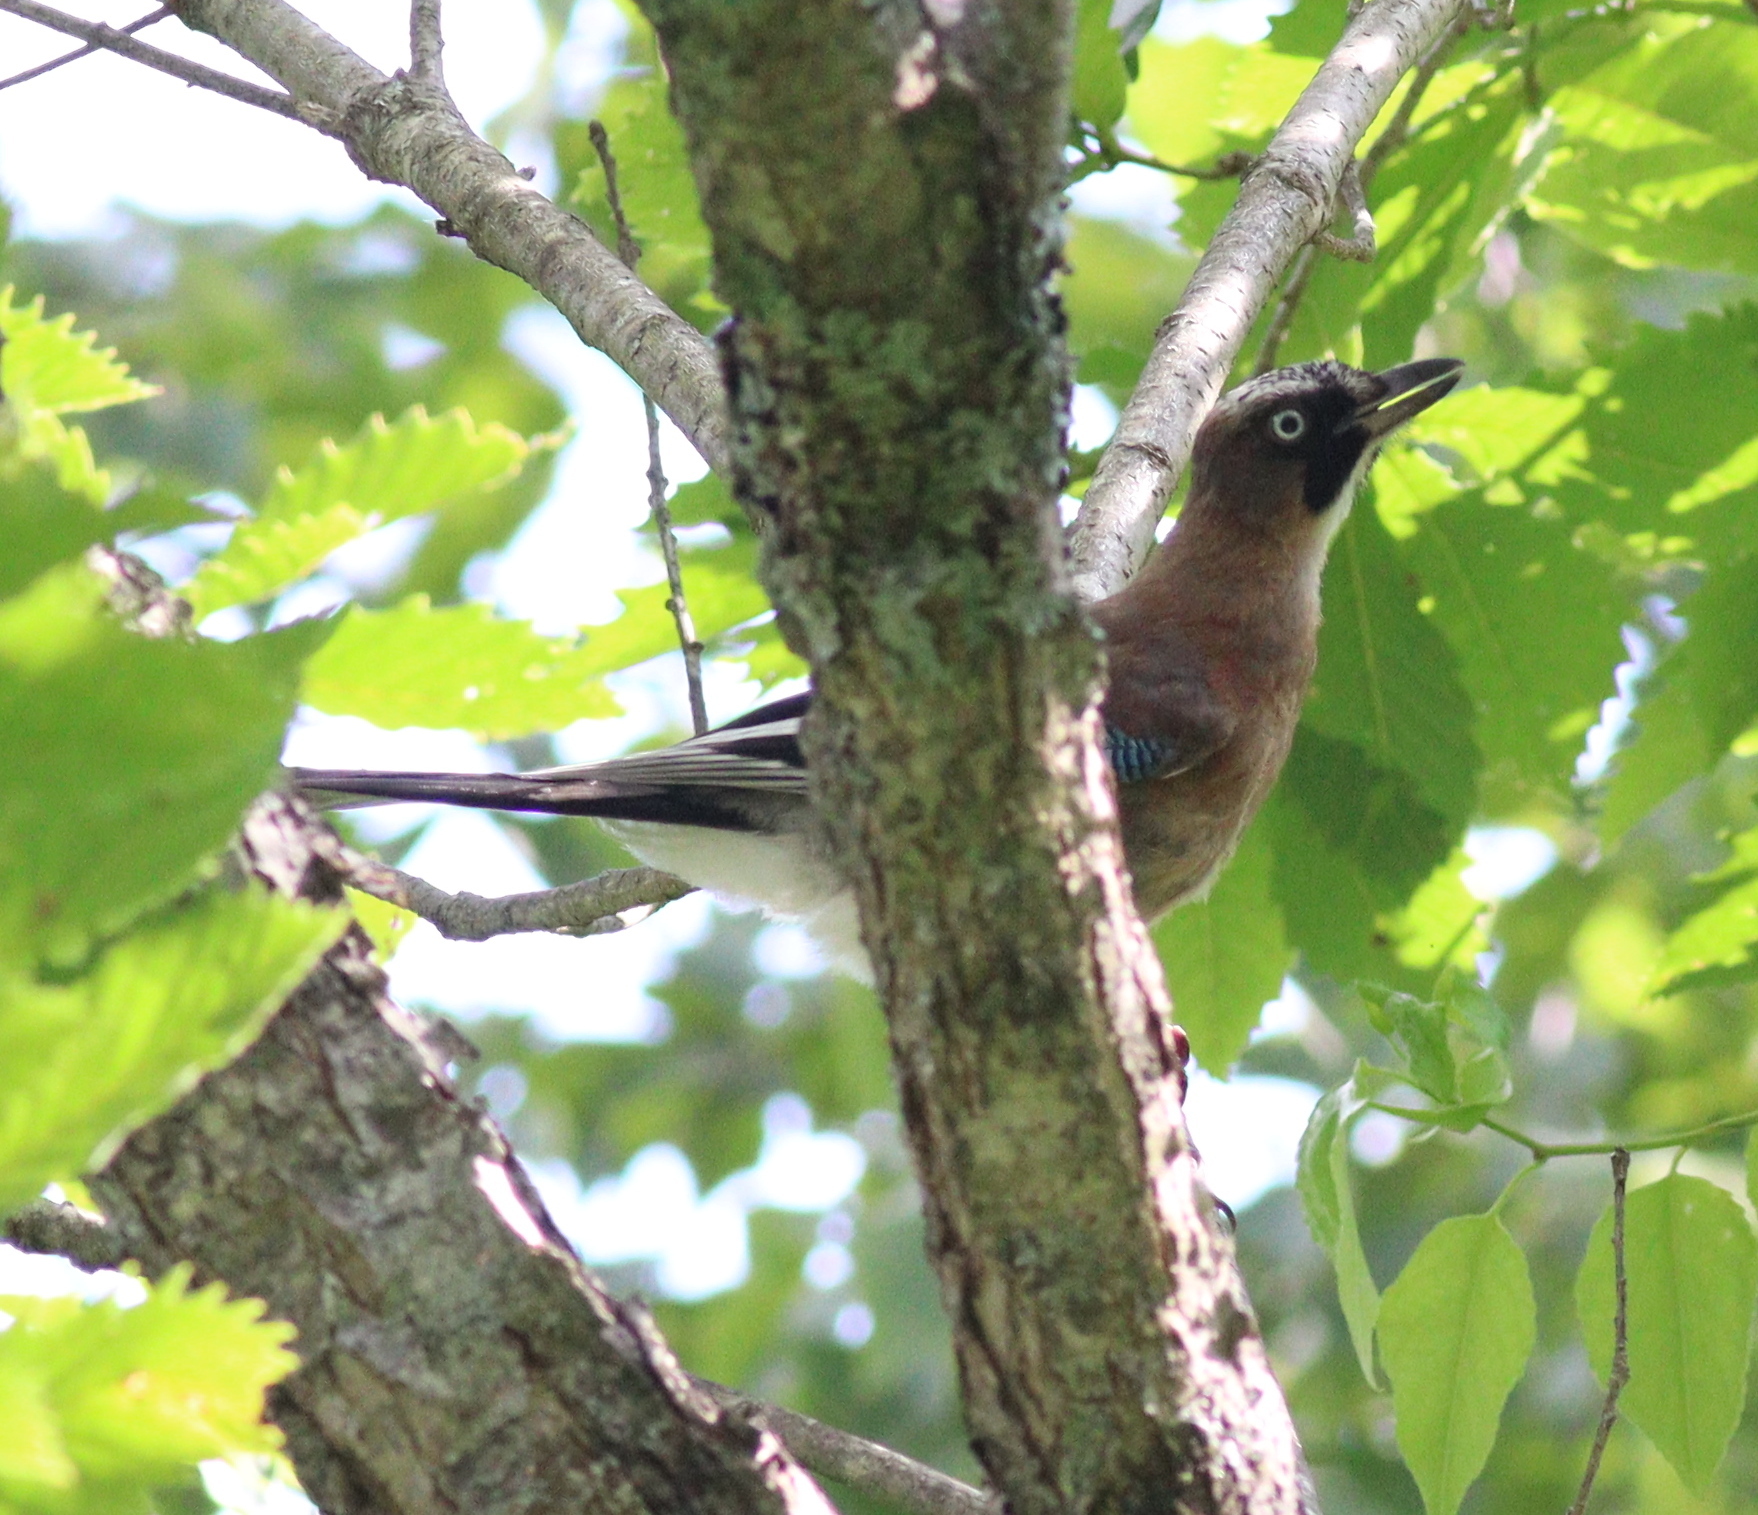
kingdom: Animalia
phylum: Chordata
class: Aves
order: Passeriformes
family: Corvidae
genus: Garrulus
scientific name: Garrulus glandarius
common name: Eurasian jay
